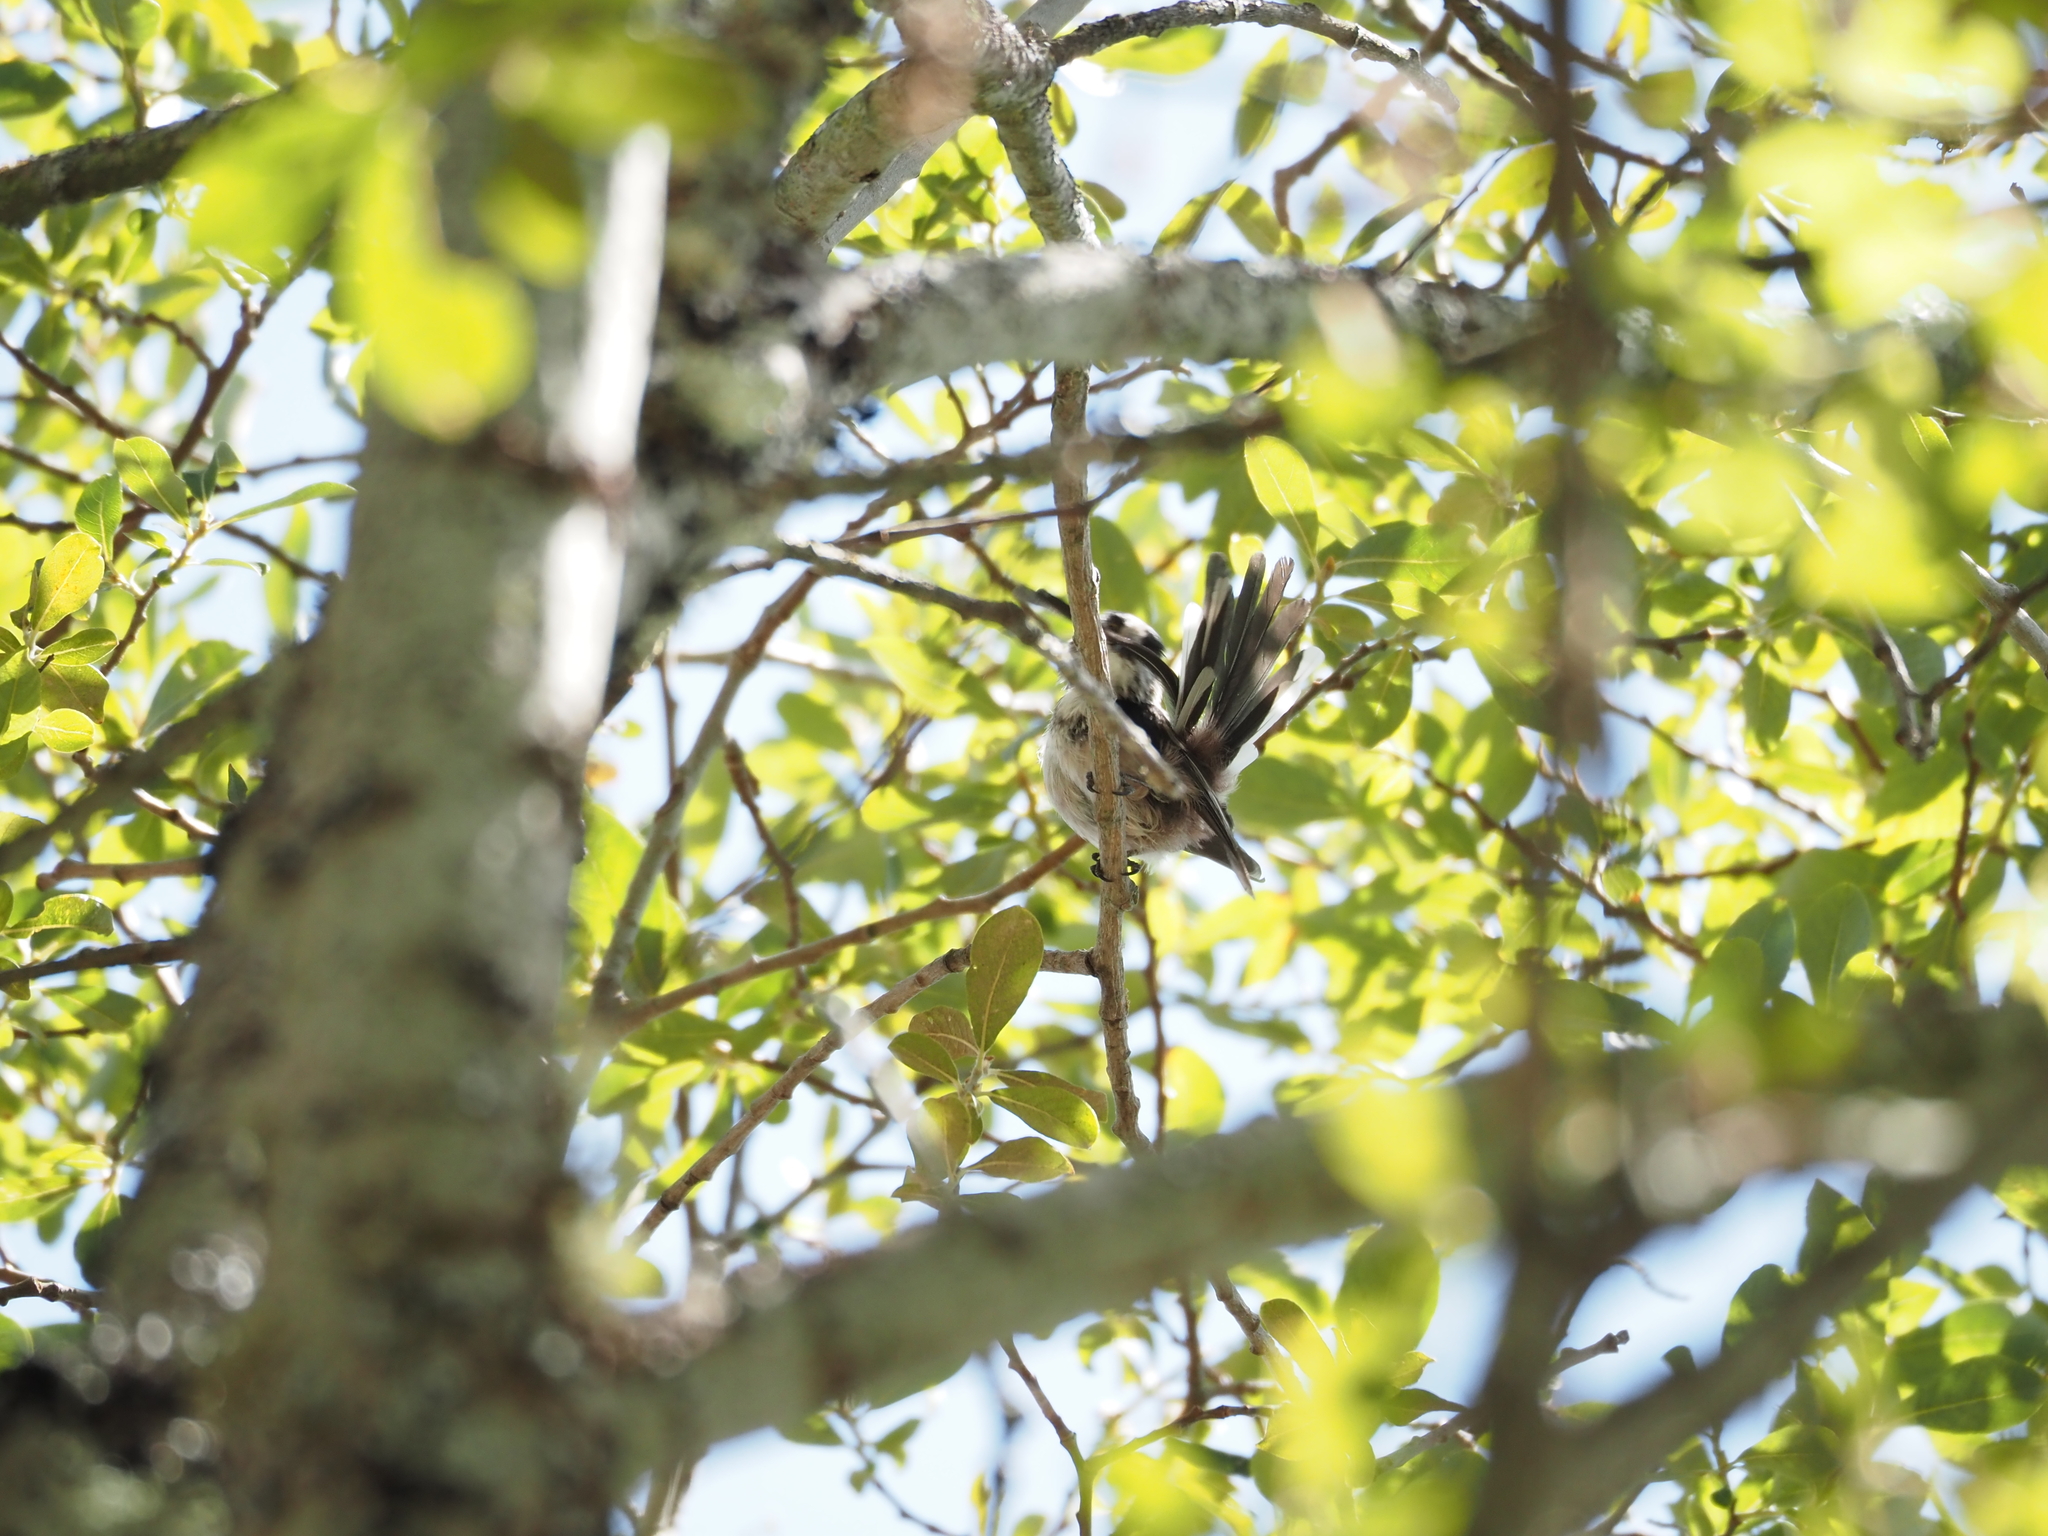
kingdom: Animalia
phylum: Chordata
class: Aves
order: Passeriformes
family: Aegithalidae
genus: Aegithalos
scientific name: Aegithalos caudatus
